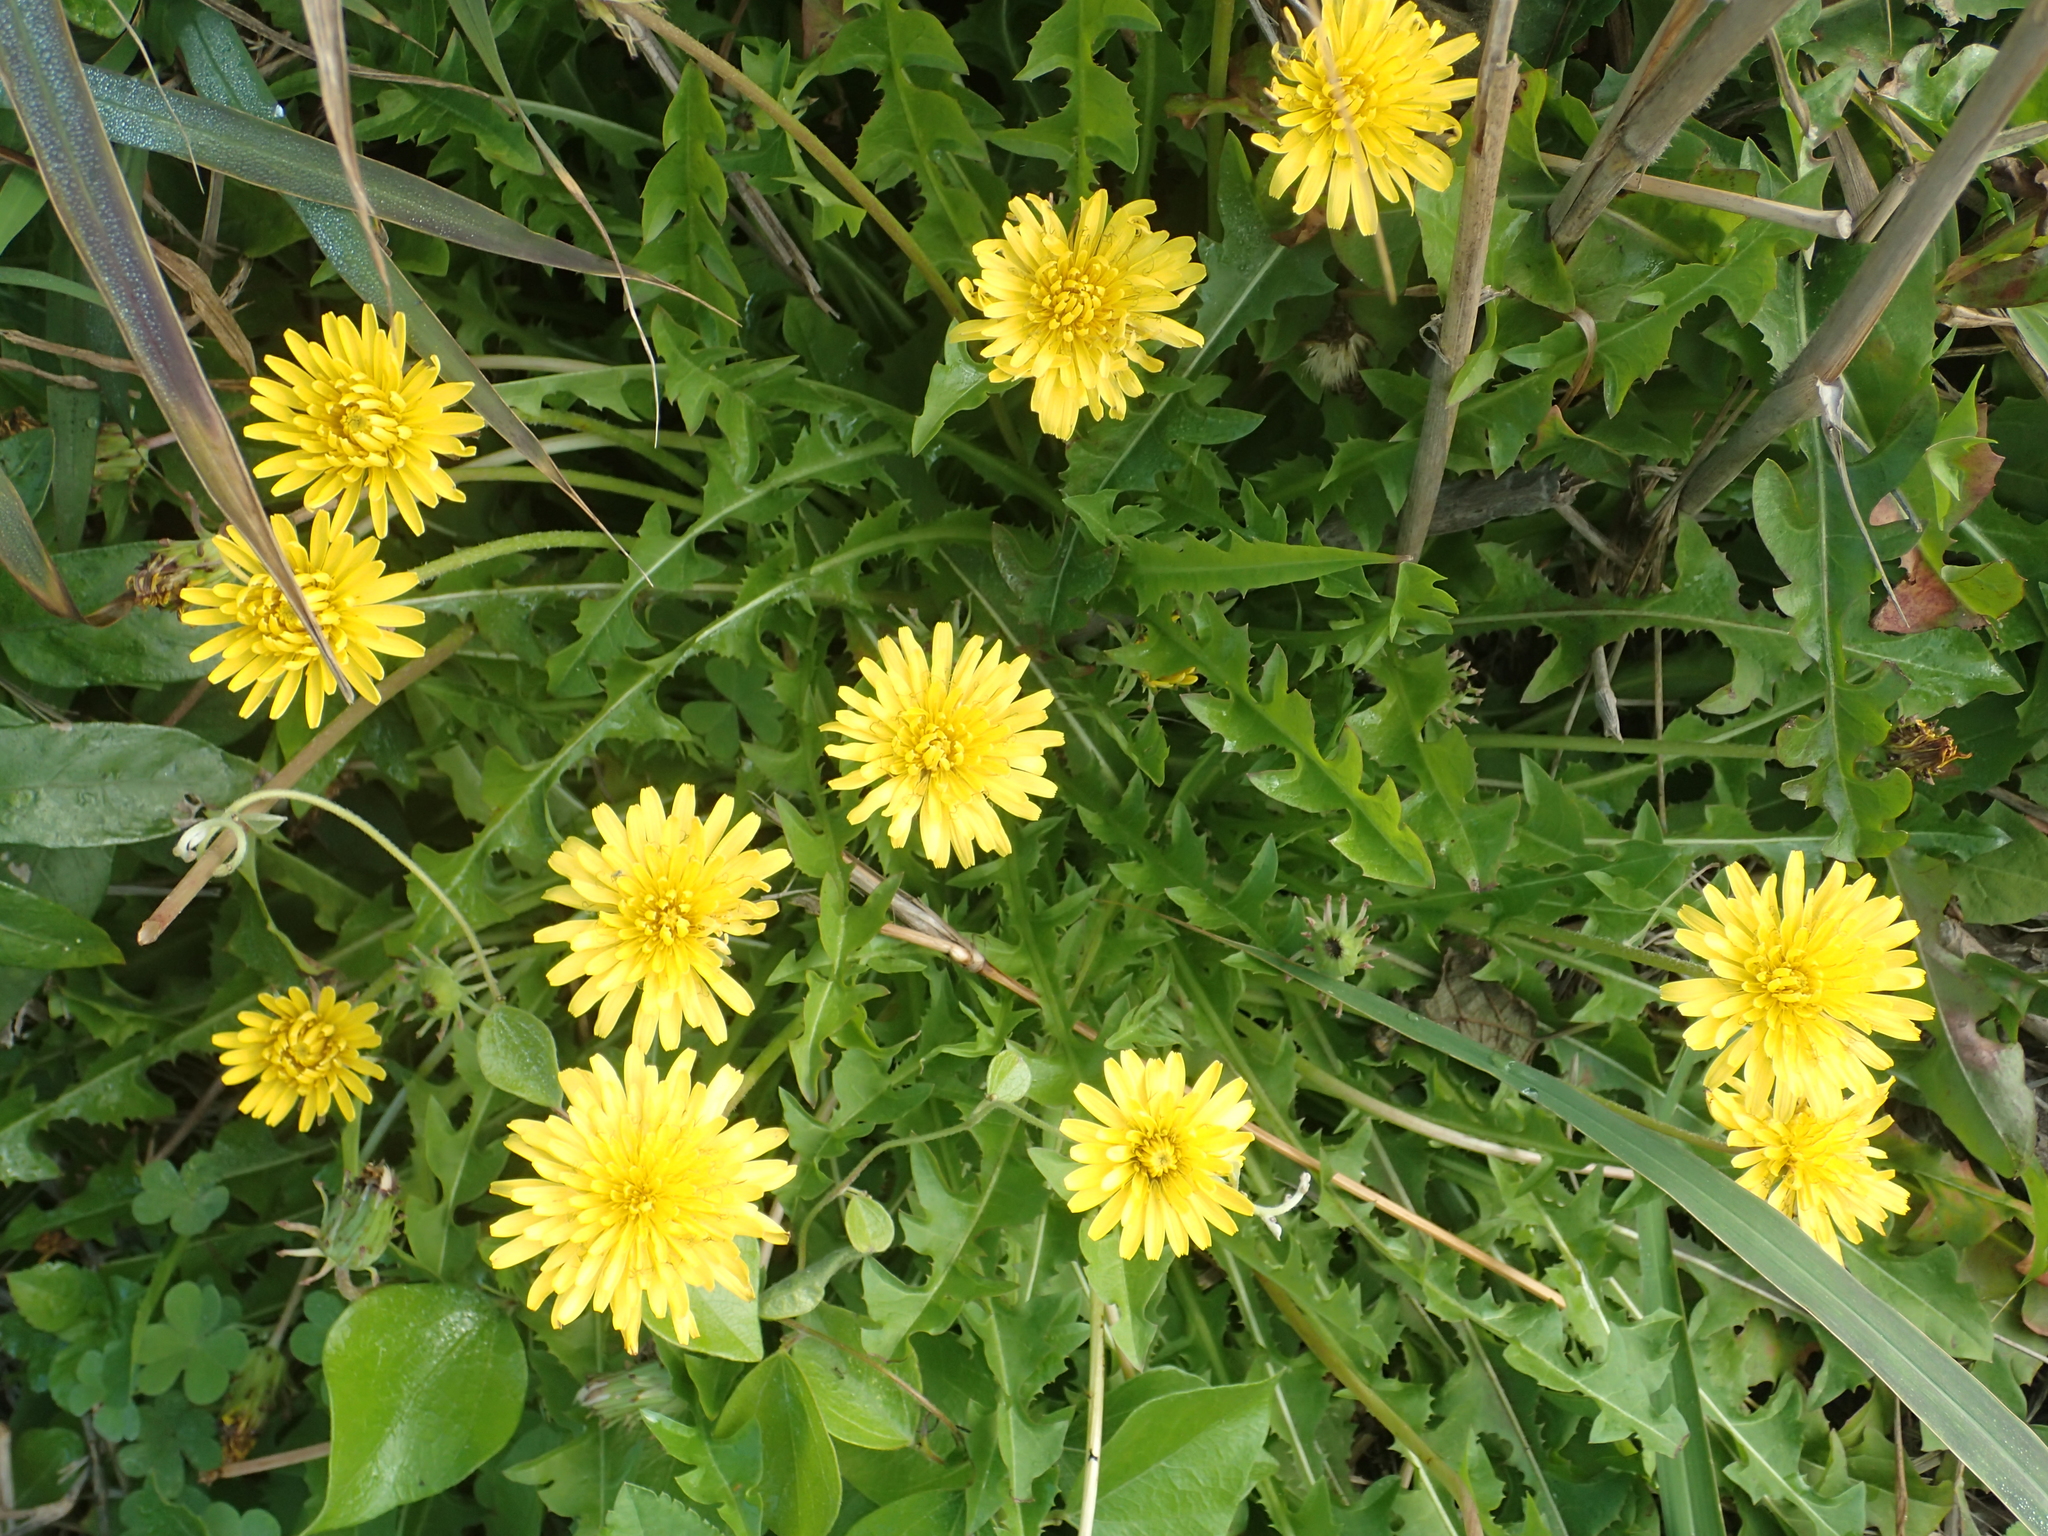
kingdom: Plantae
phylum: Tracheophyta
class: Magnoliopsida
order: Asterales
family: Asteraceae
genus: Taraxacum
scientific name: Taraxacum formosanum
